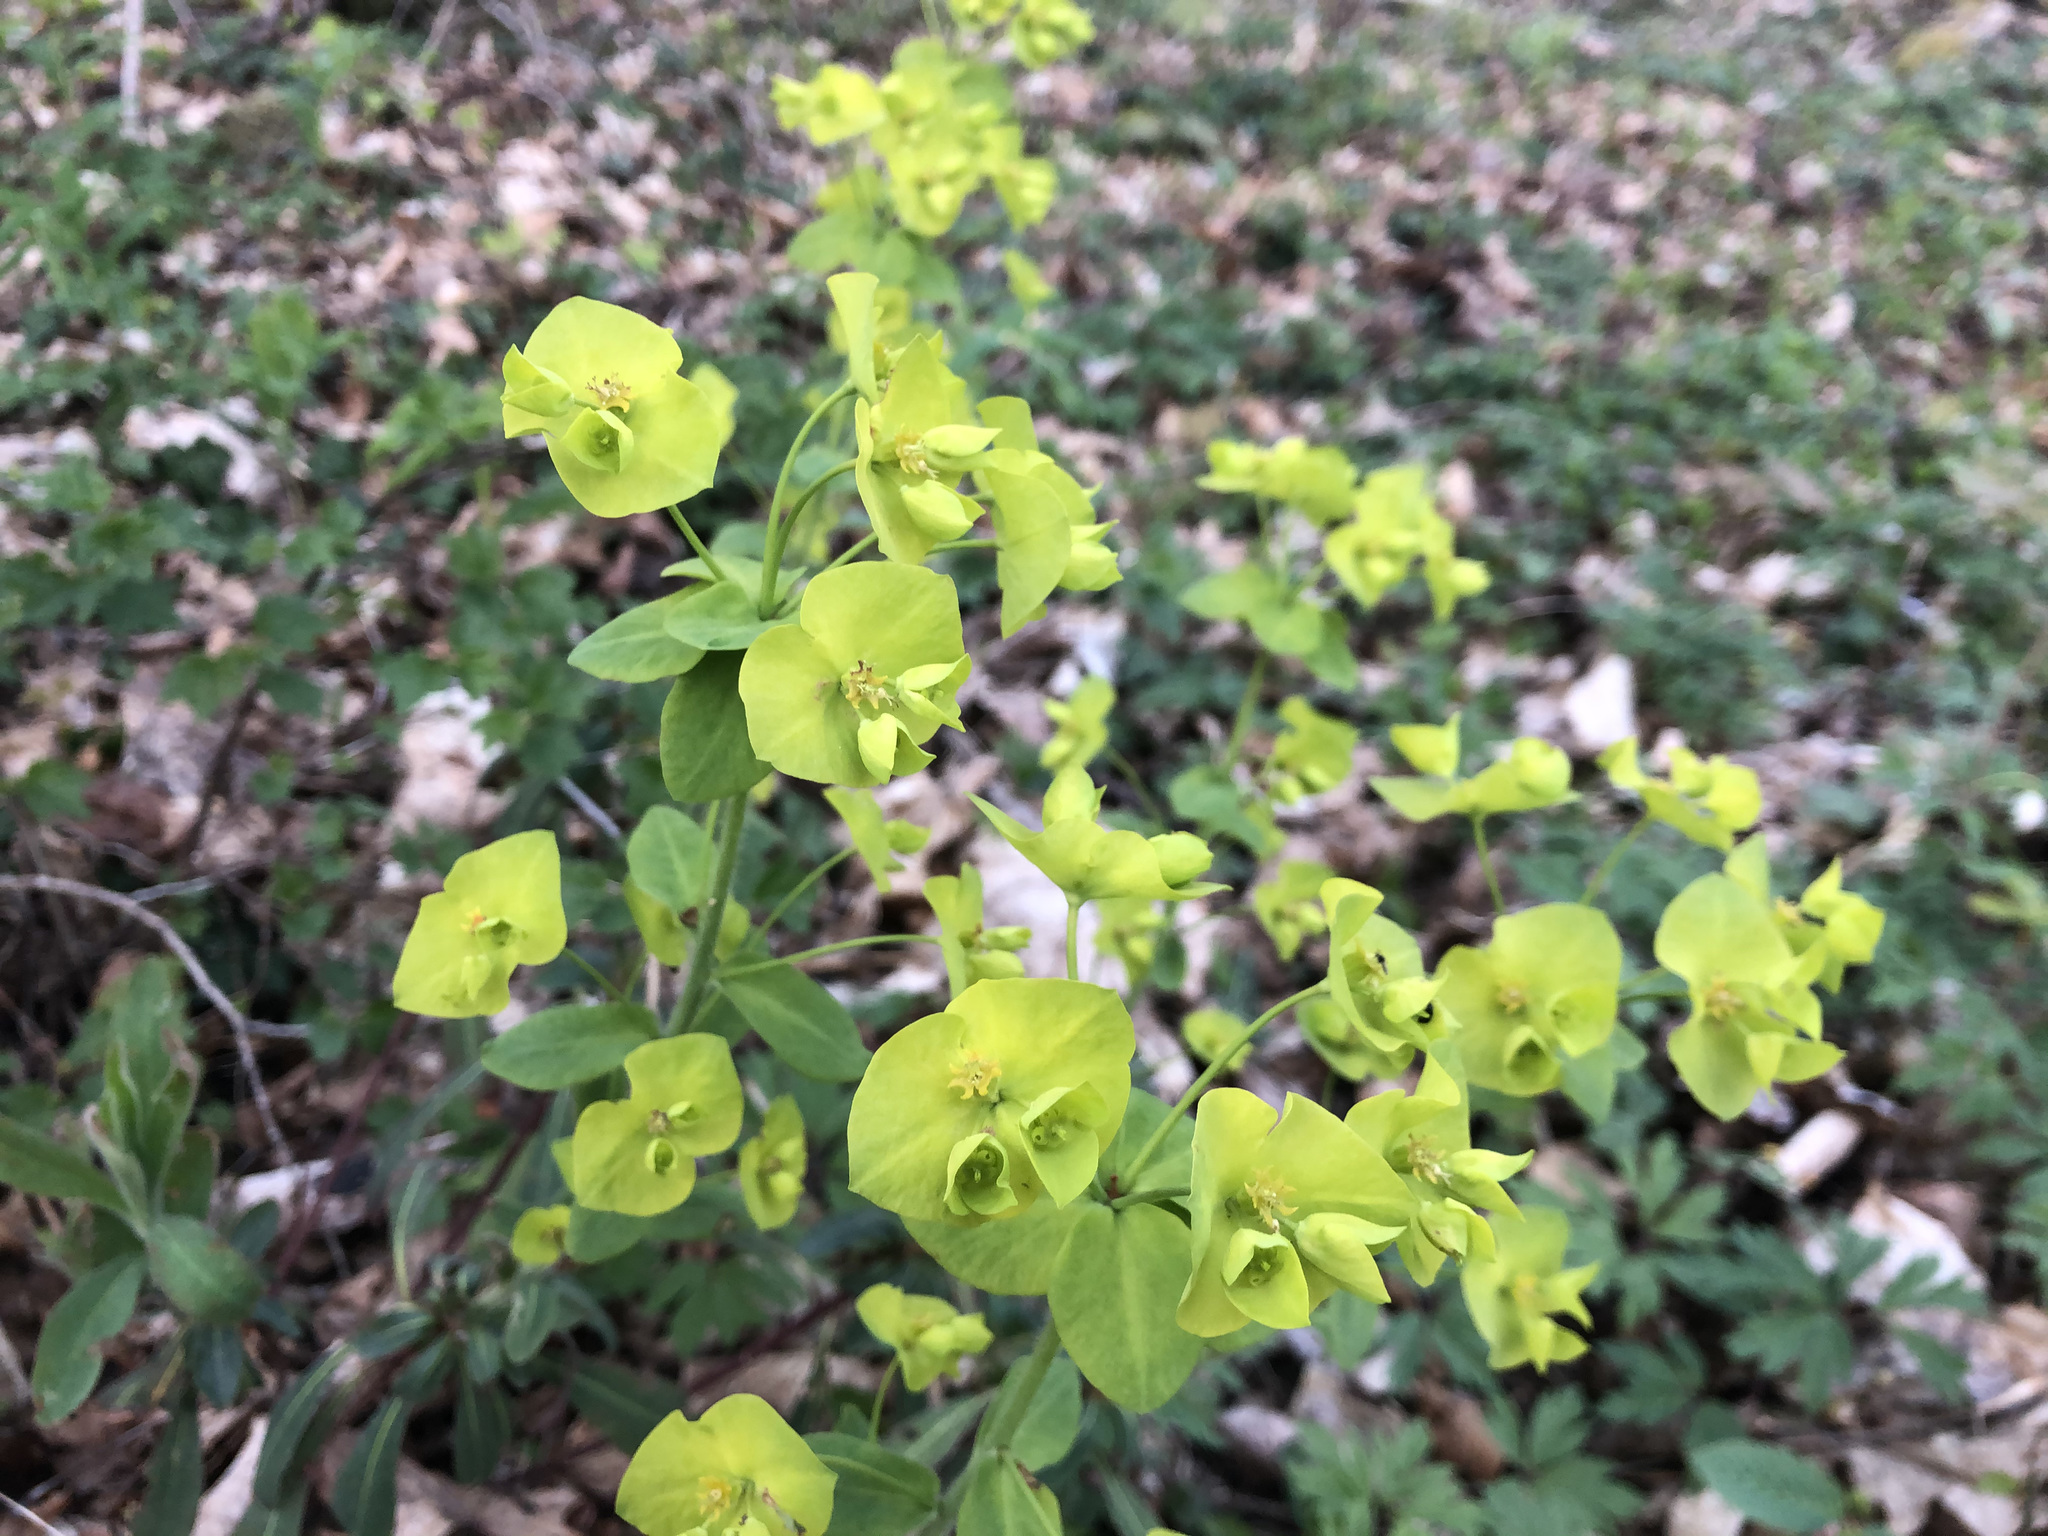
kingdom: Plantae
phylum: Tracheophyta
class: Magnoliopsida
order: Malpighiales
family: Euphorbiaceae
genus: Euphorbia
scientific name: Euphorbia amygdaloides
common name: Wood spurge
